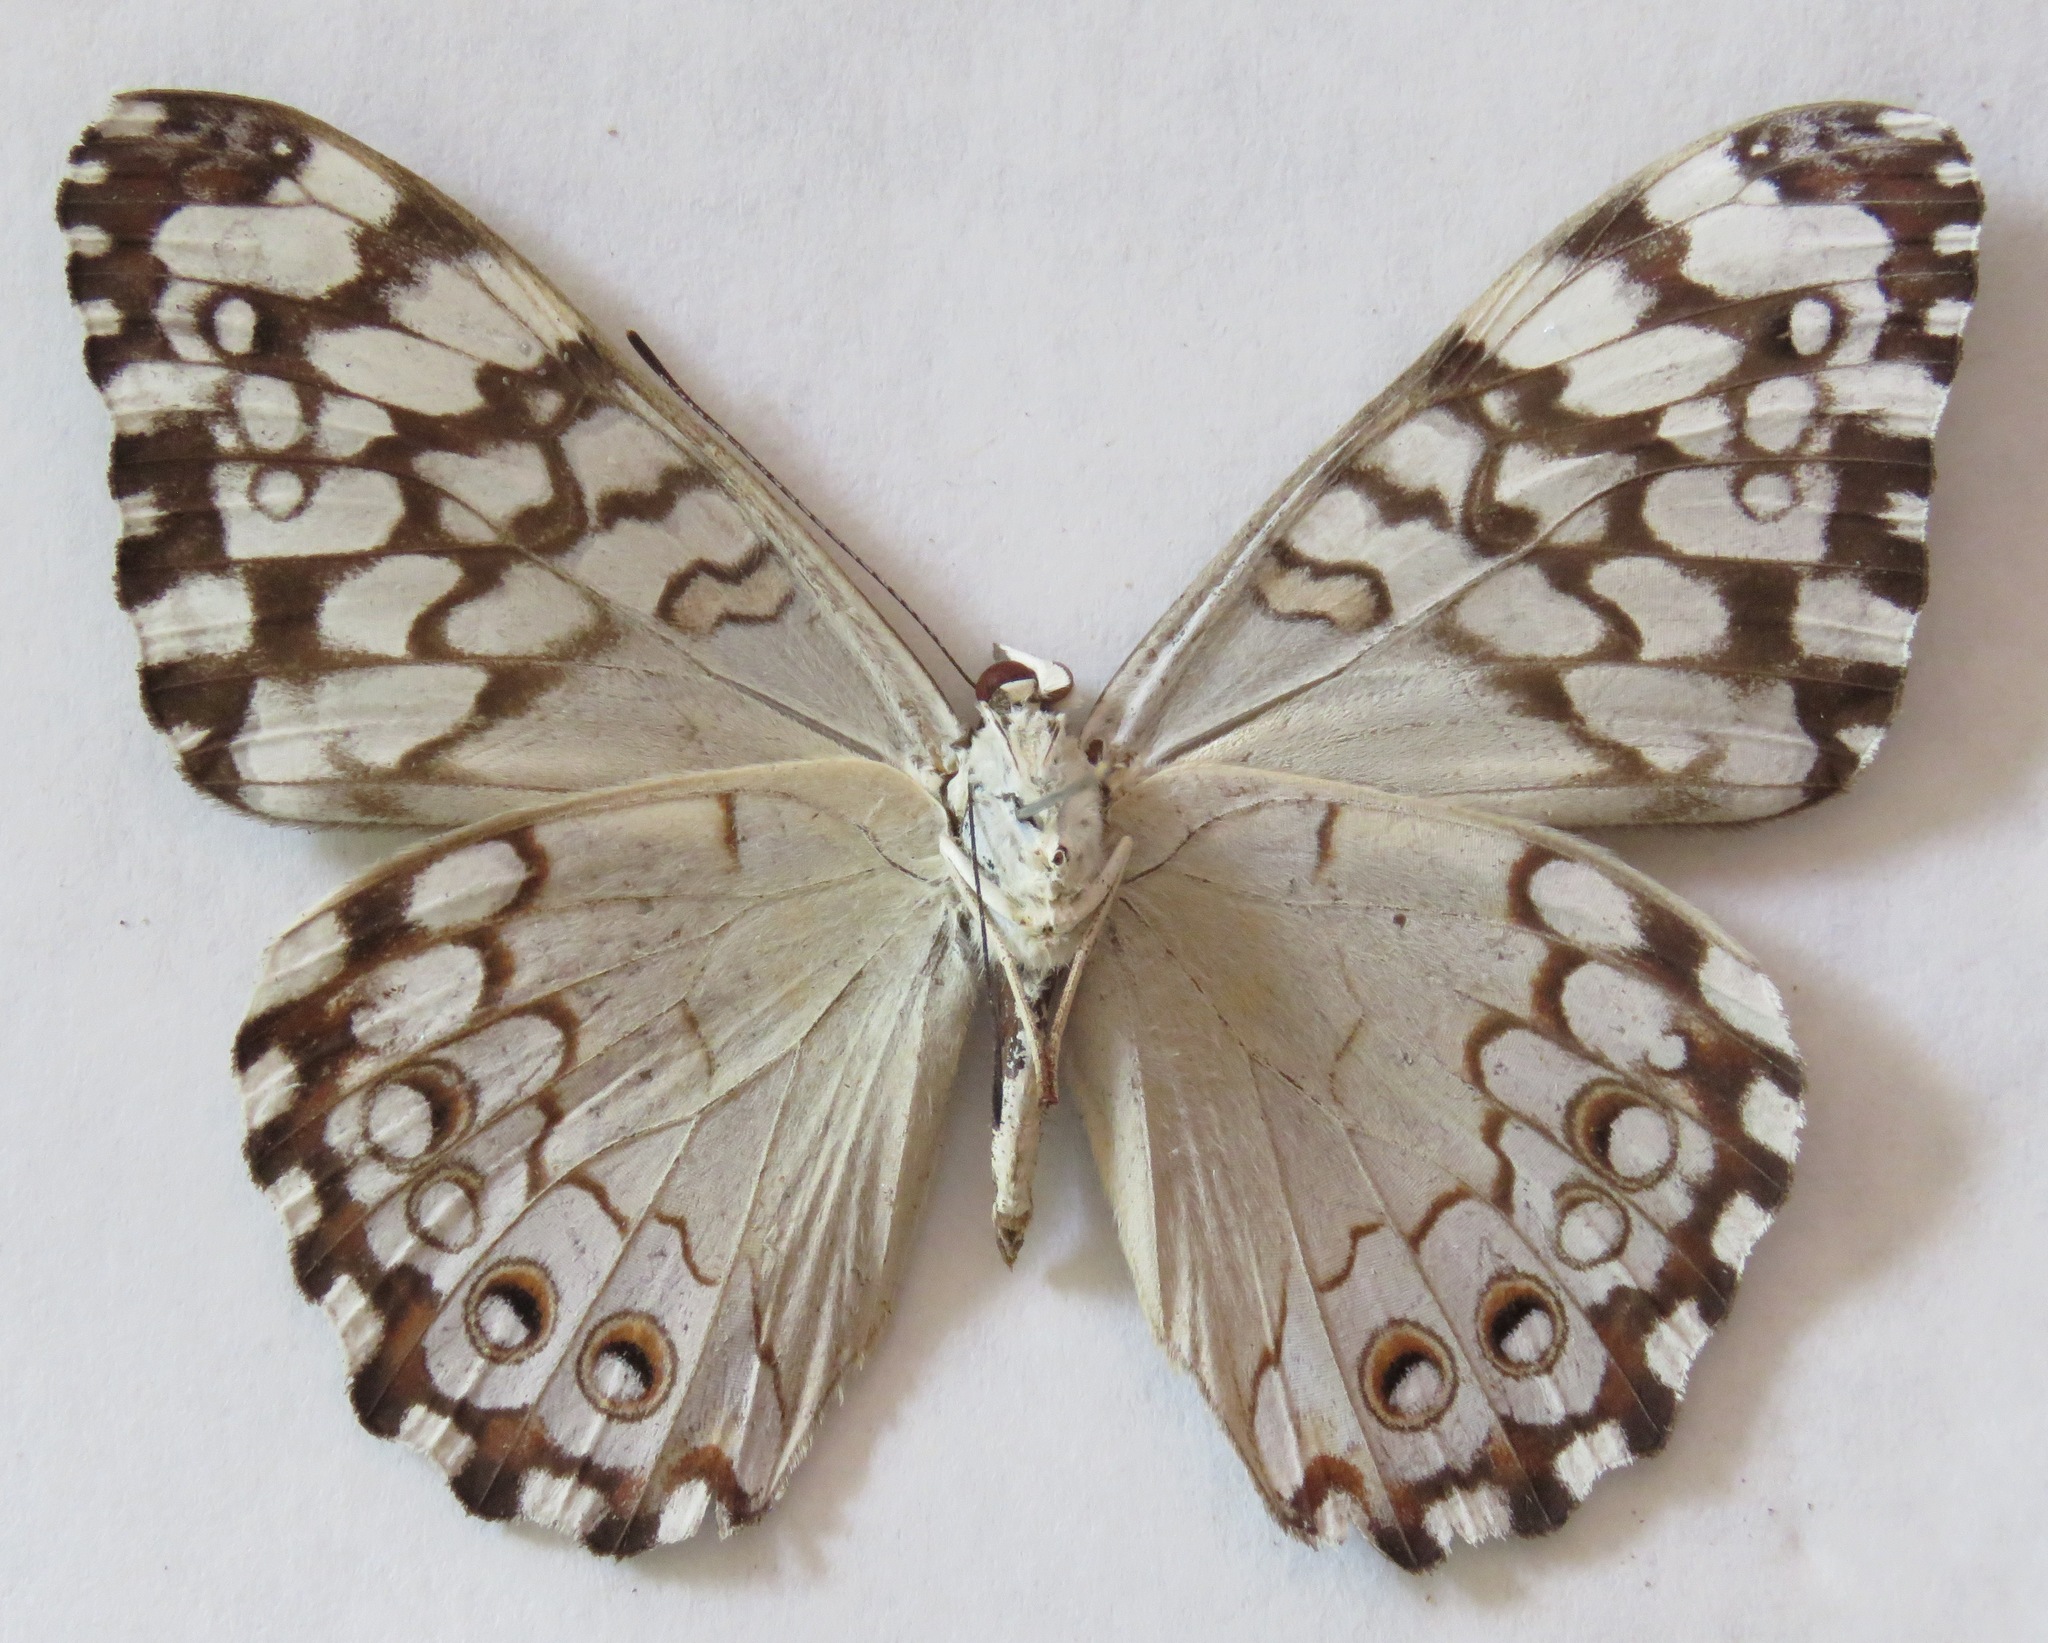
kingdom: Animalia
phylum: Arthropoda
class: Insecta
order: Lepidoptera
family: Nymphalidae
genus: Hamadryas
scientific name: Hamadryas februa
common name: Gray cracker
